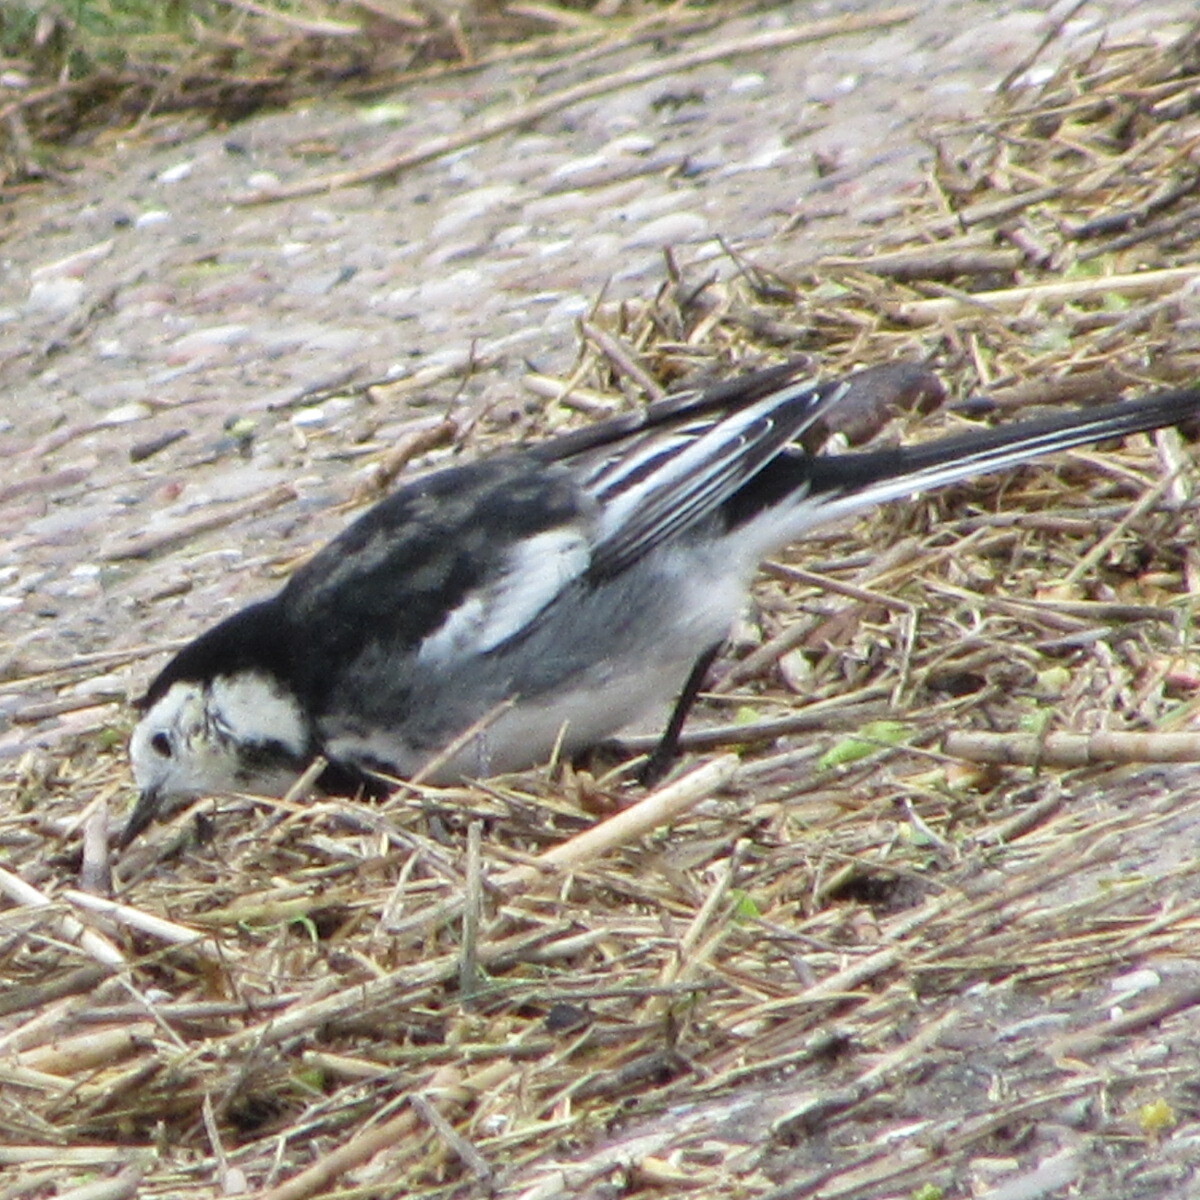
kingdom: Animalia
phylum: Chordata
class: Aves
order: Passeriformes
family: Motacillidae
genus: Motacilla
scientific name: Motacilla alba
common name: White wagtail
